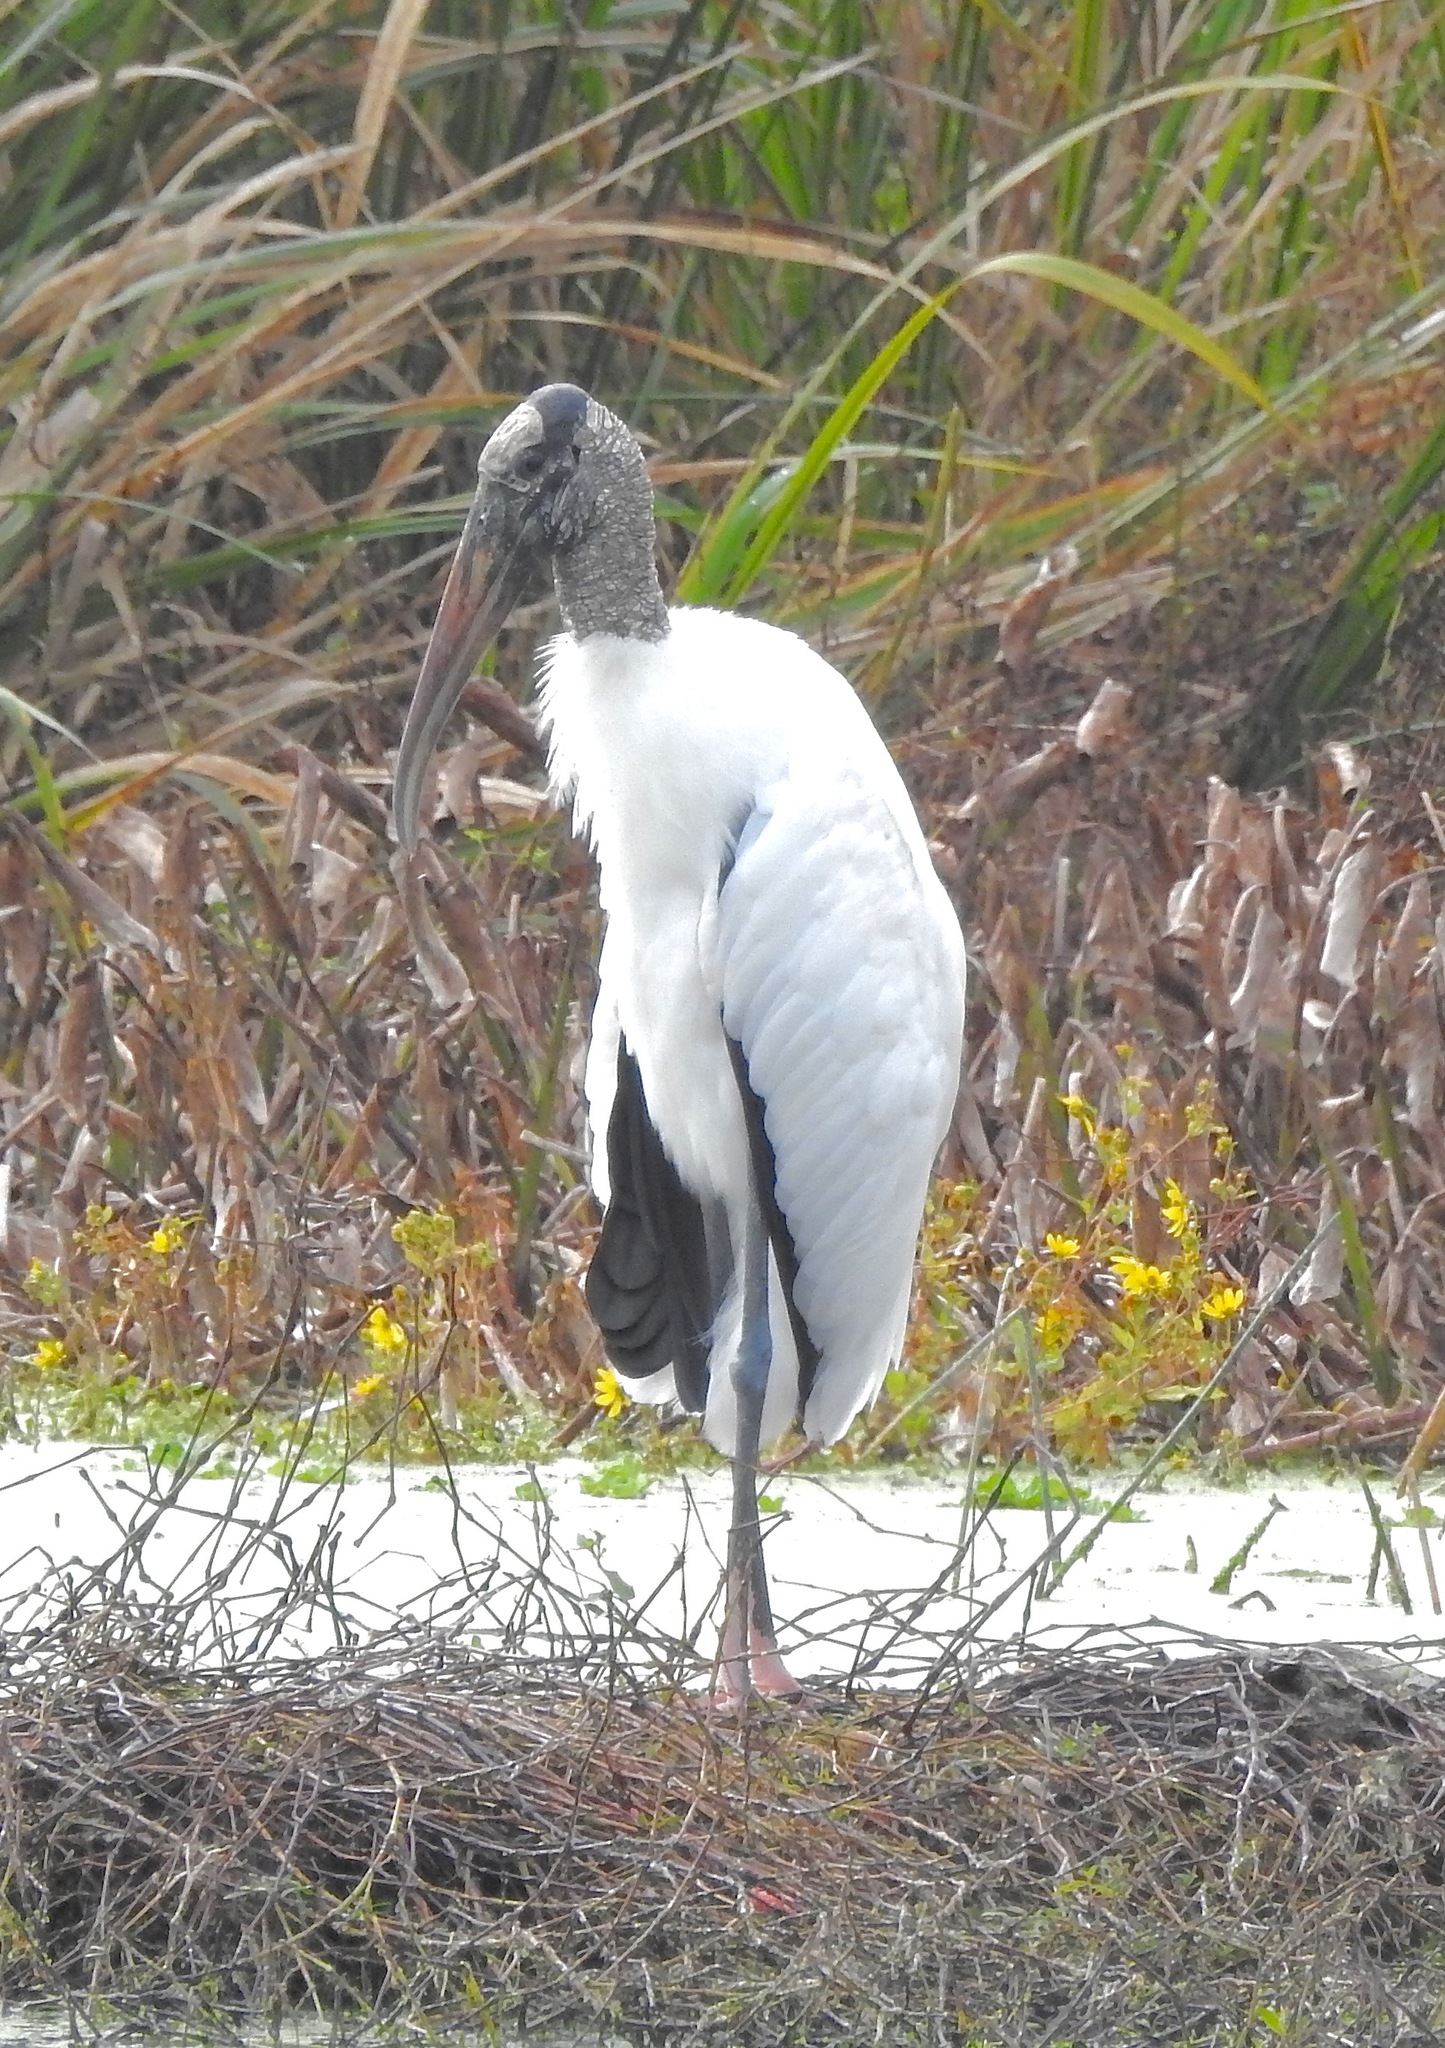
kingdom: Animalia
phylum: Chordata
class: Aves
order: Ciconiiformes
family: Ciconiidae
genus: Mycteria
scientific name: Mycteria americana
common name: Wood stork
